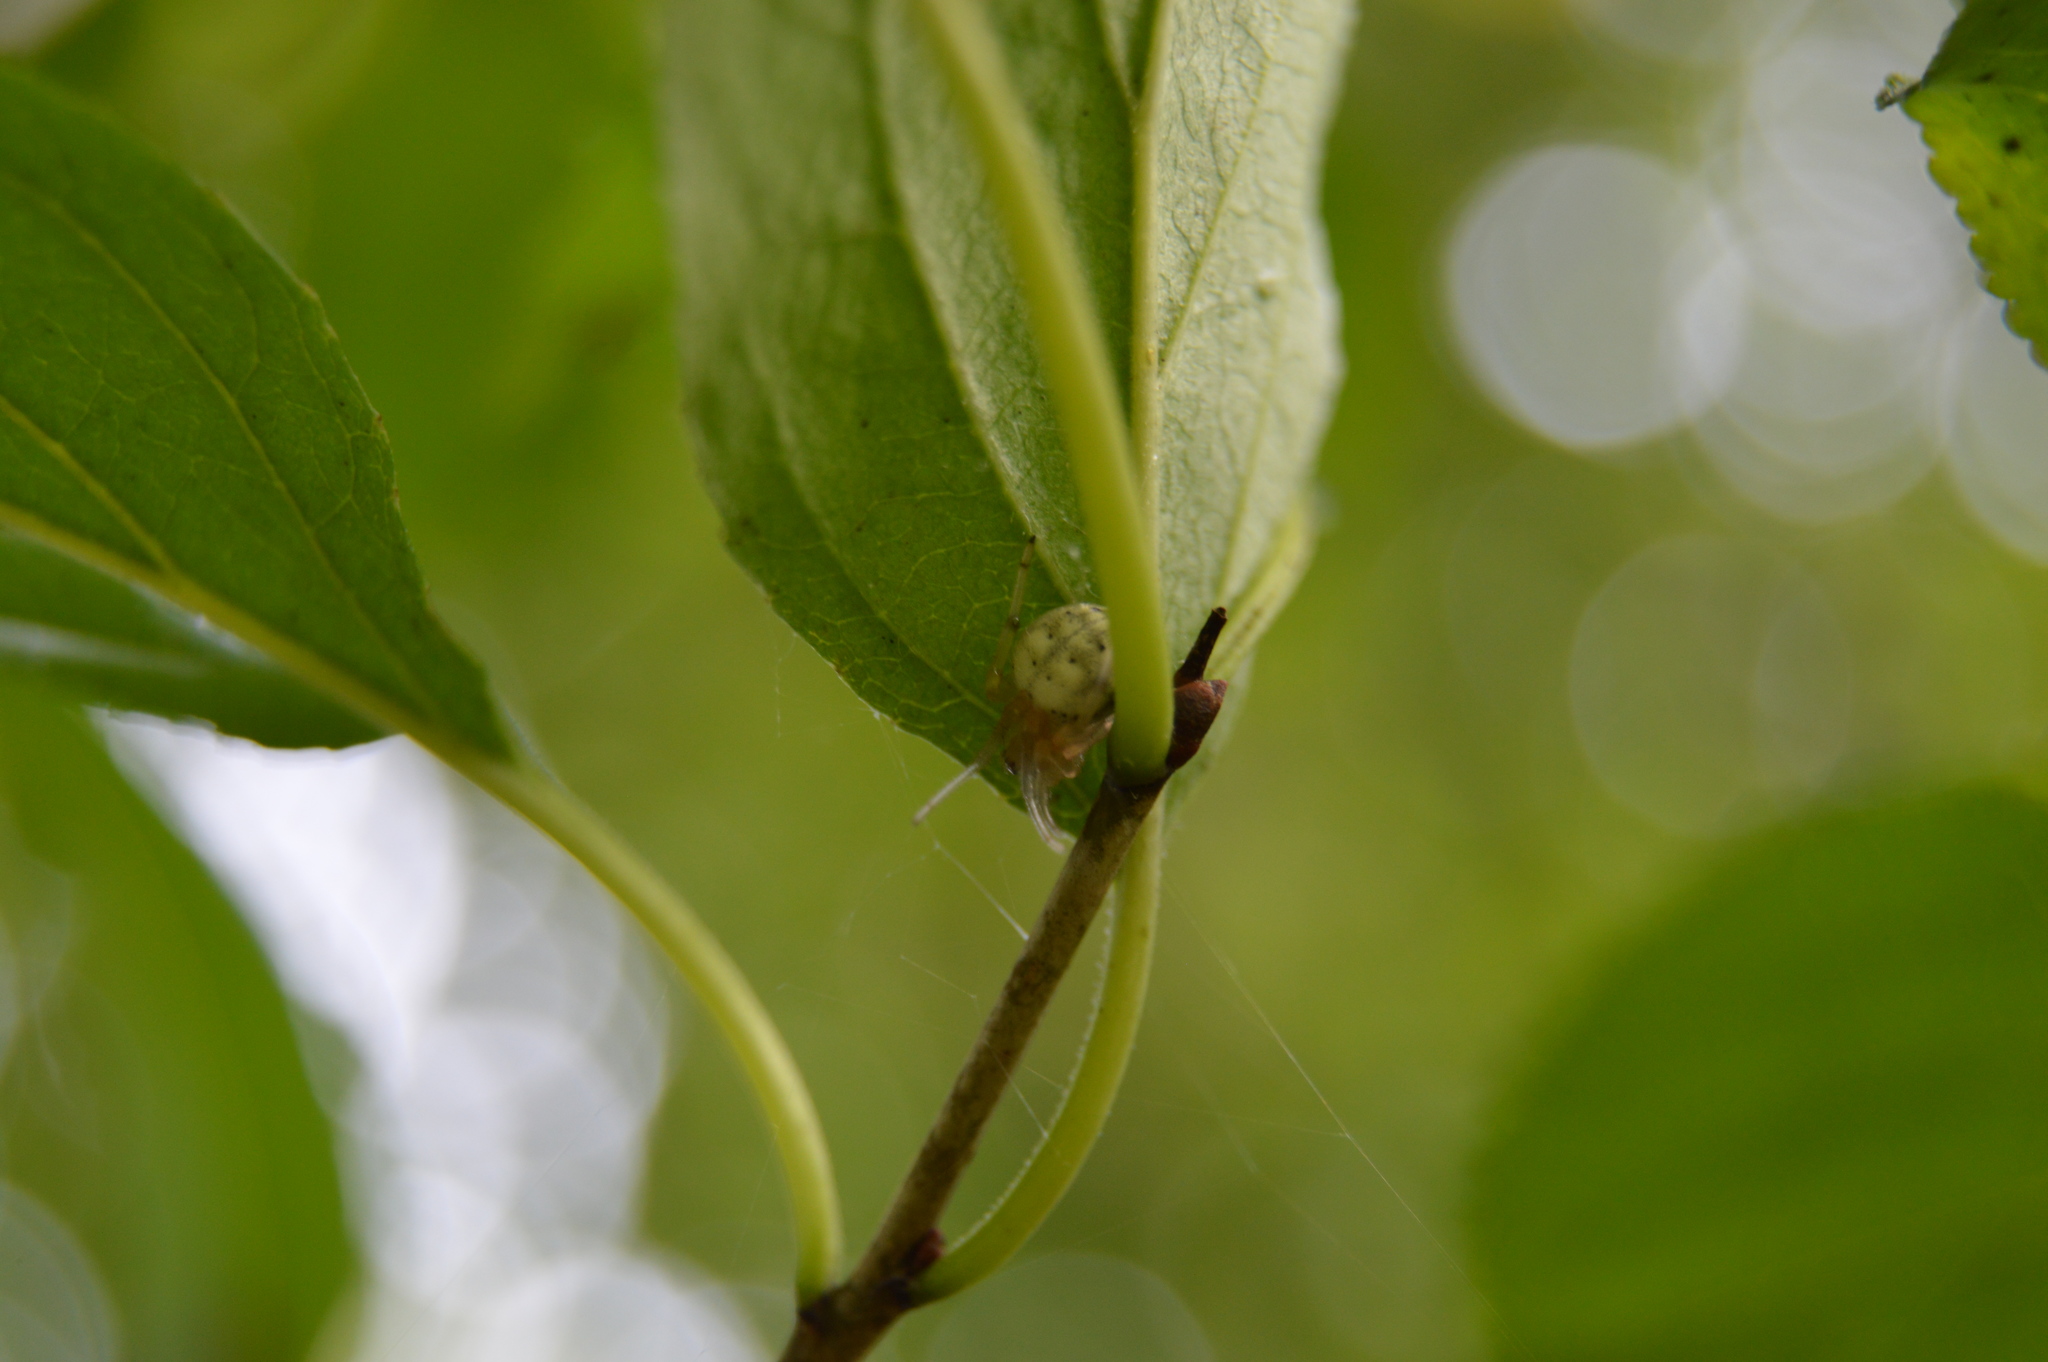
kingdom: Animalia
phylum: Arthropoda
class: Arachnida
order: Araneae
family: Araneidae
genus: Araneus
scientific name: Araneus thaddeus
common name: Lattice orbweaver
